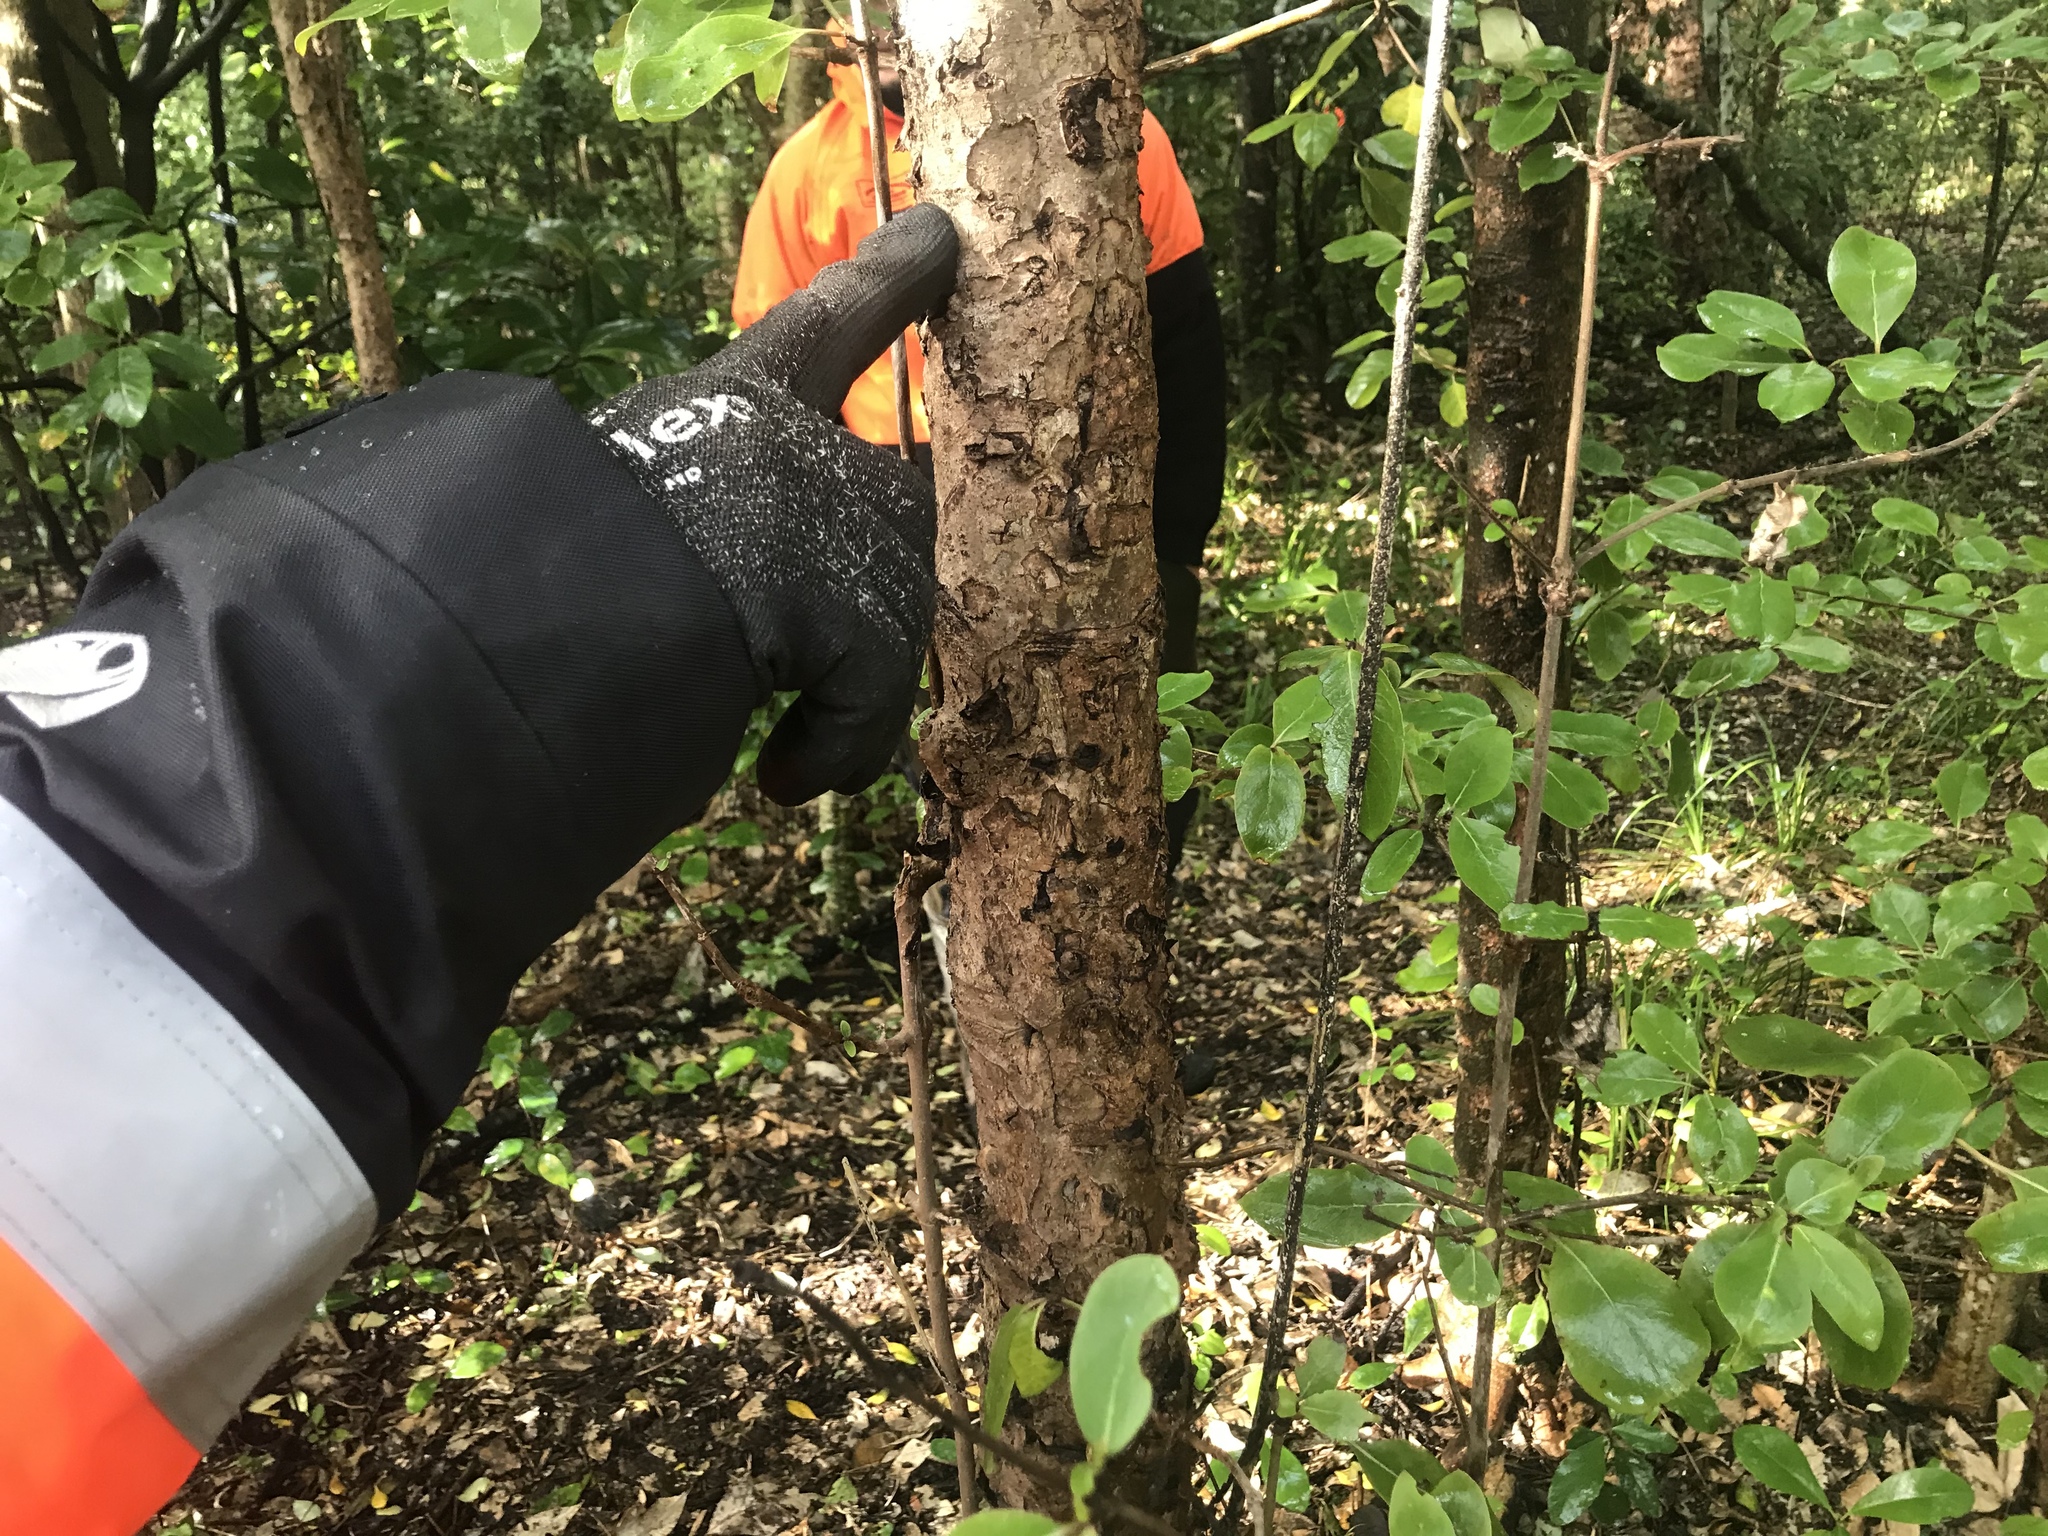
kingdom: Plantae
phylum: Tracheophyta
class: Magnoliopsida
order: Gentianales
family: Rubiaceae
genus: Coprosma
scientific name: Coprosma chathamica
